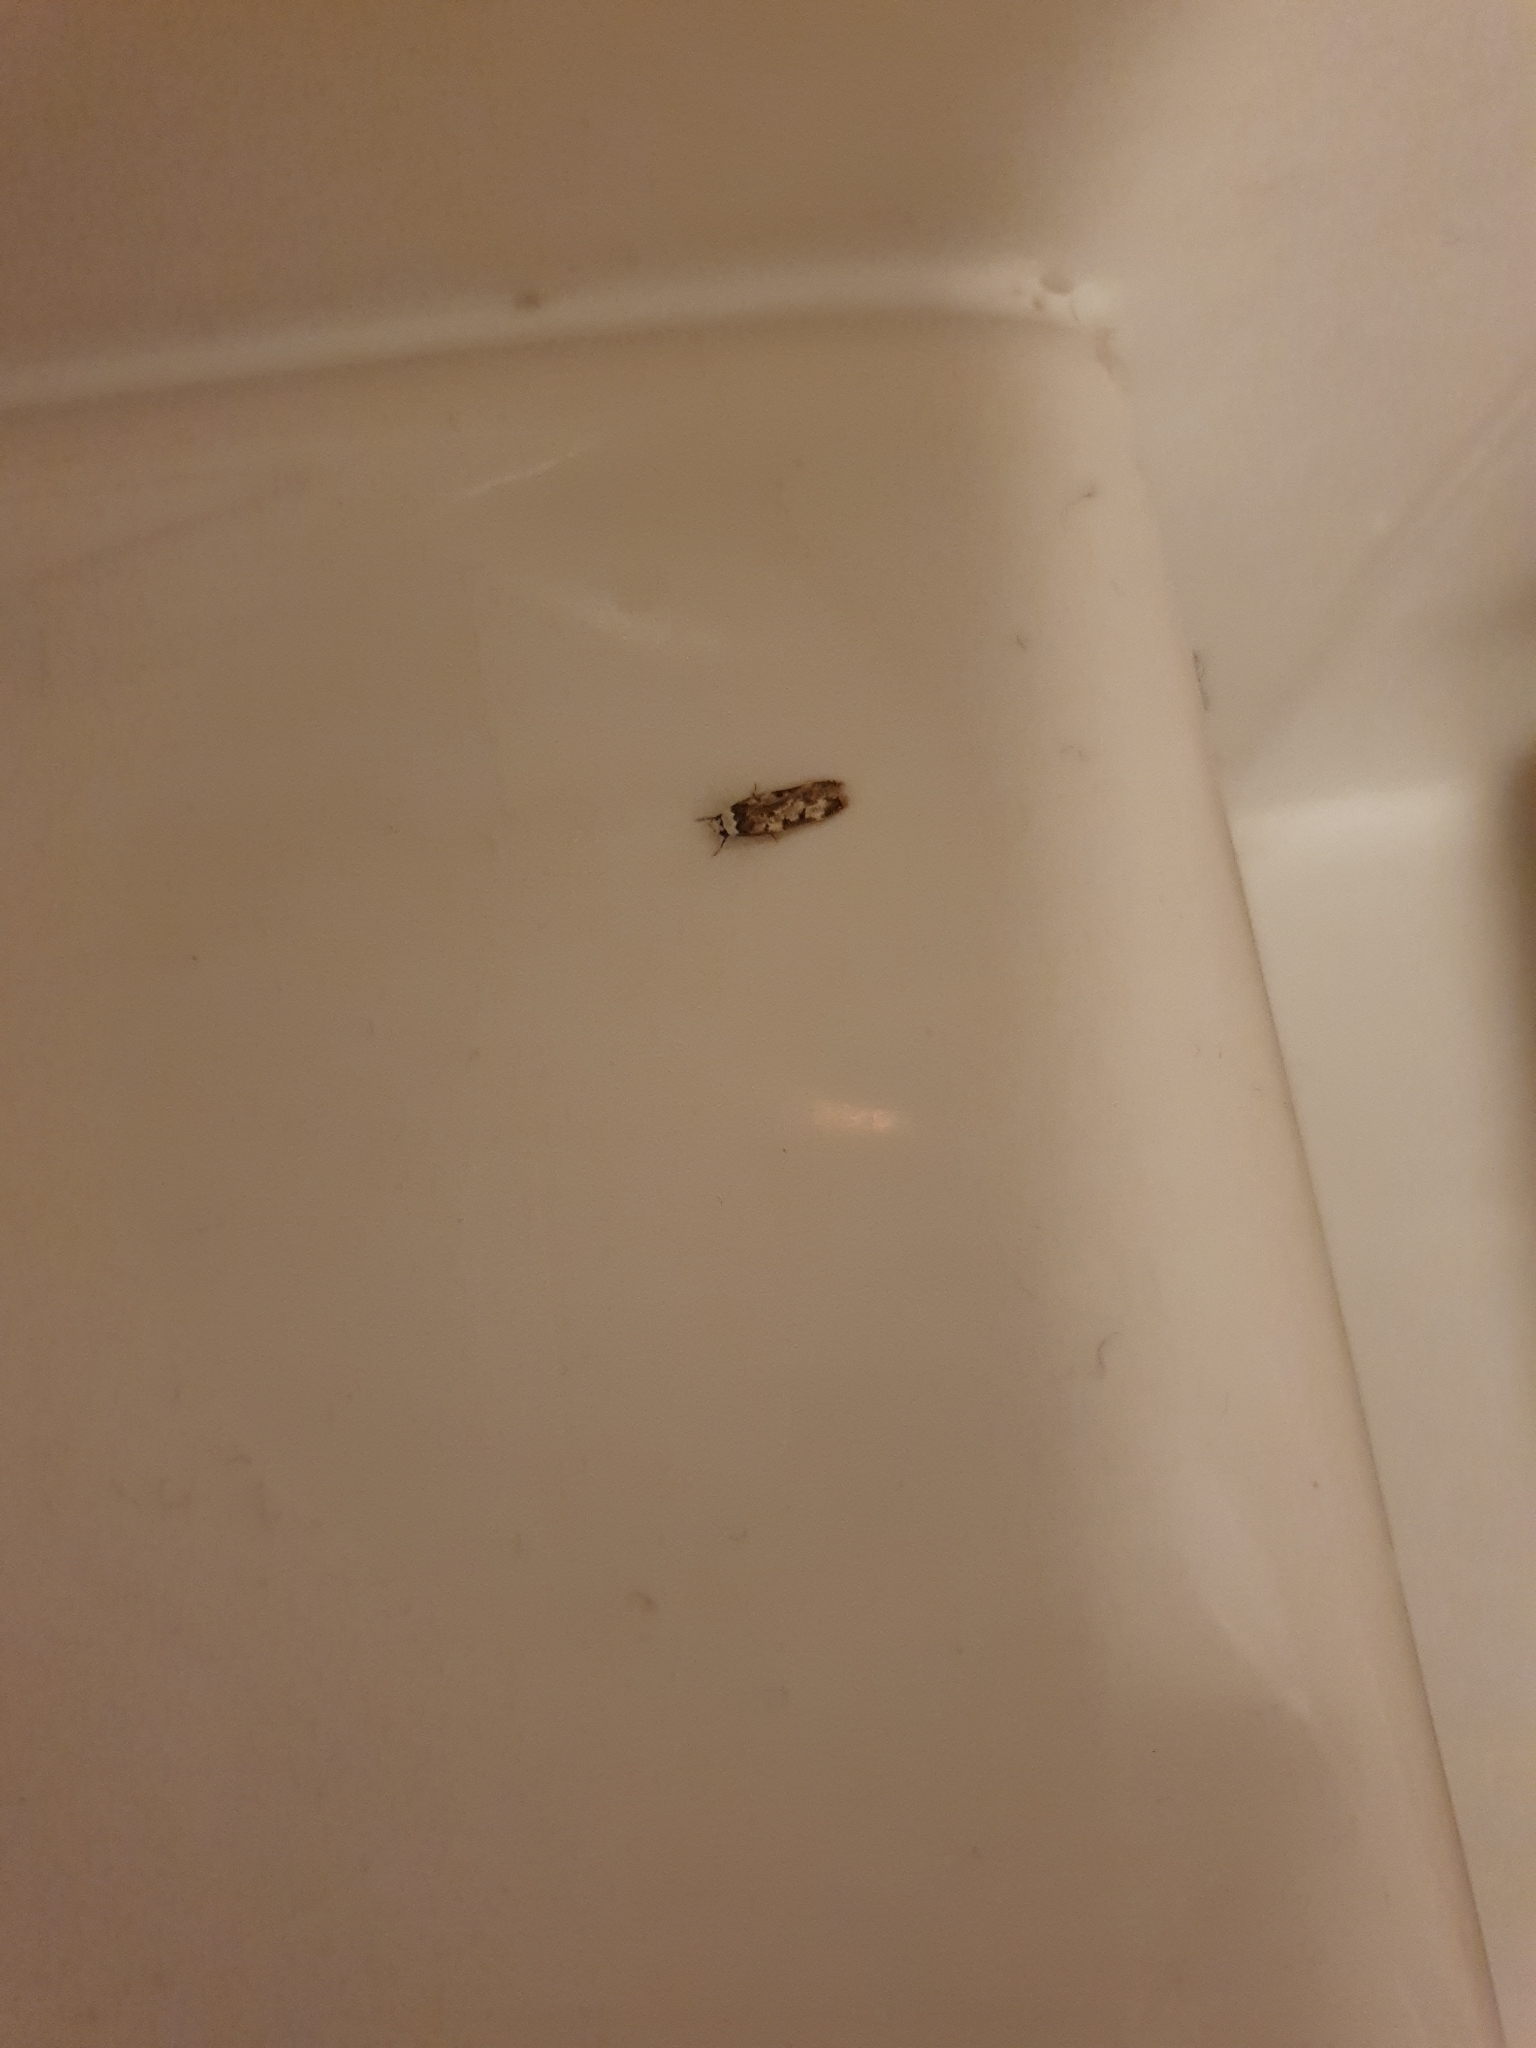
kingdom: Animalia
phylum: Arthropoda
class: Insecta
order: Lepidoptera
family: Oecophoridae
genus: Endrosis
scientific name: Endrosis sarcitrella
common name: White-shouldered house moth
